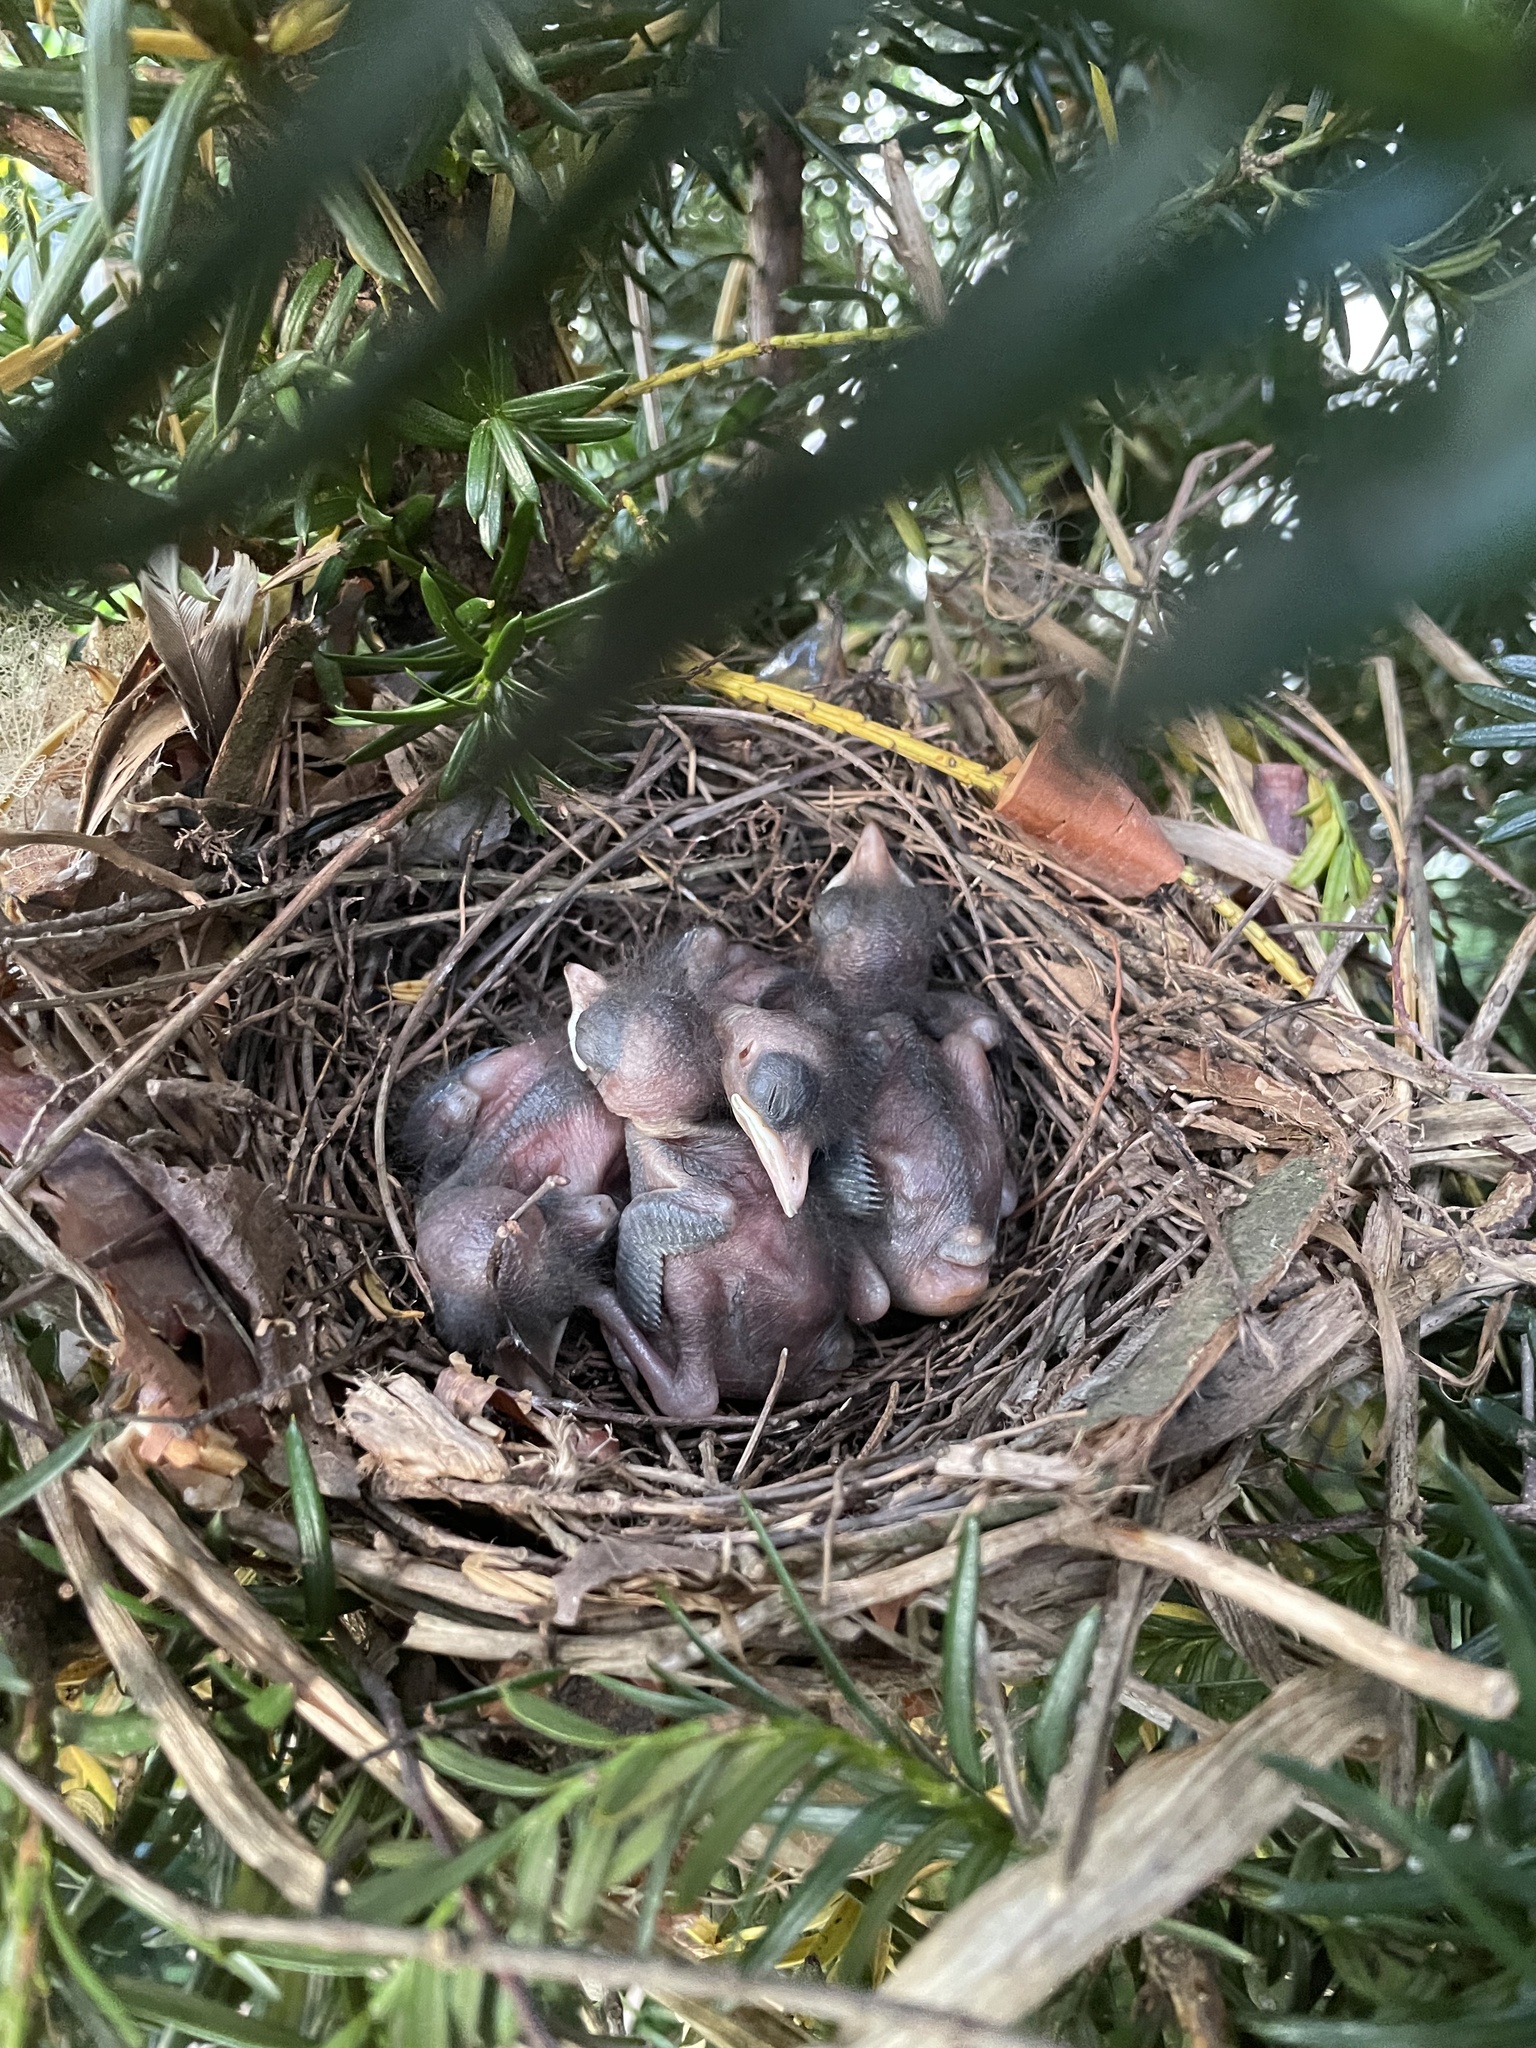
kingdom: Animalia
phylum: Chordata
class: Aves
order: Passeriformes
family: Mimidae
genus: Dumetella
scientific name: Dumetella carolinensis
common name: Gray catbird
